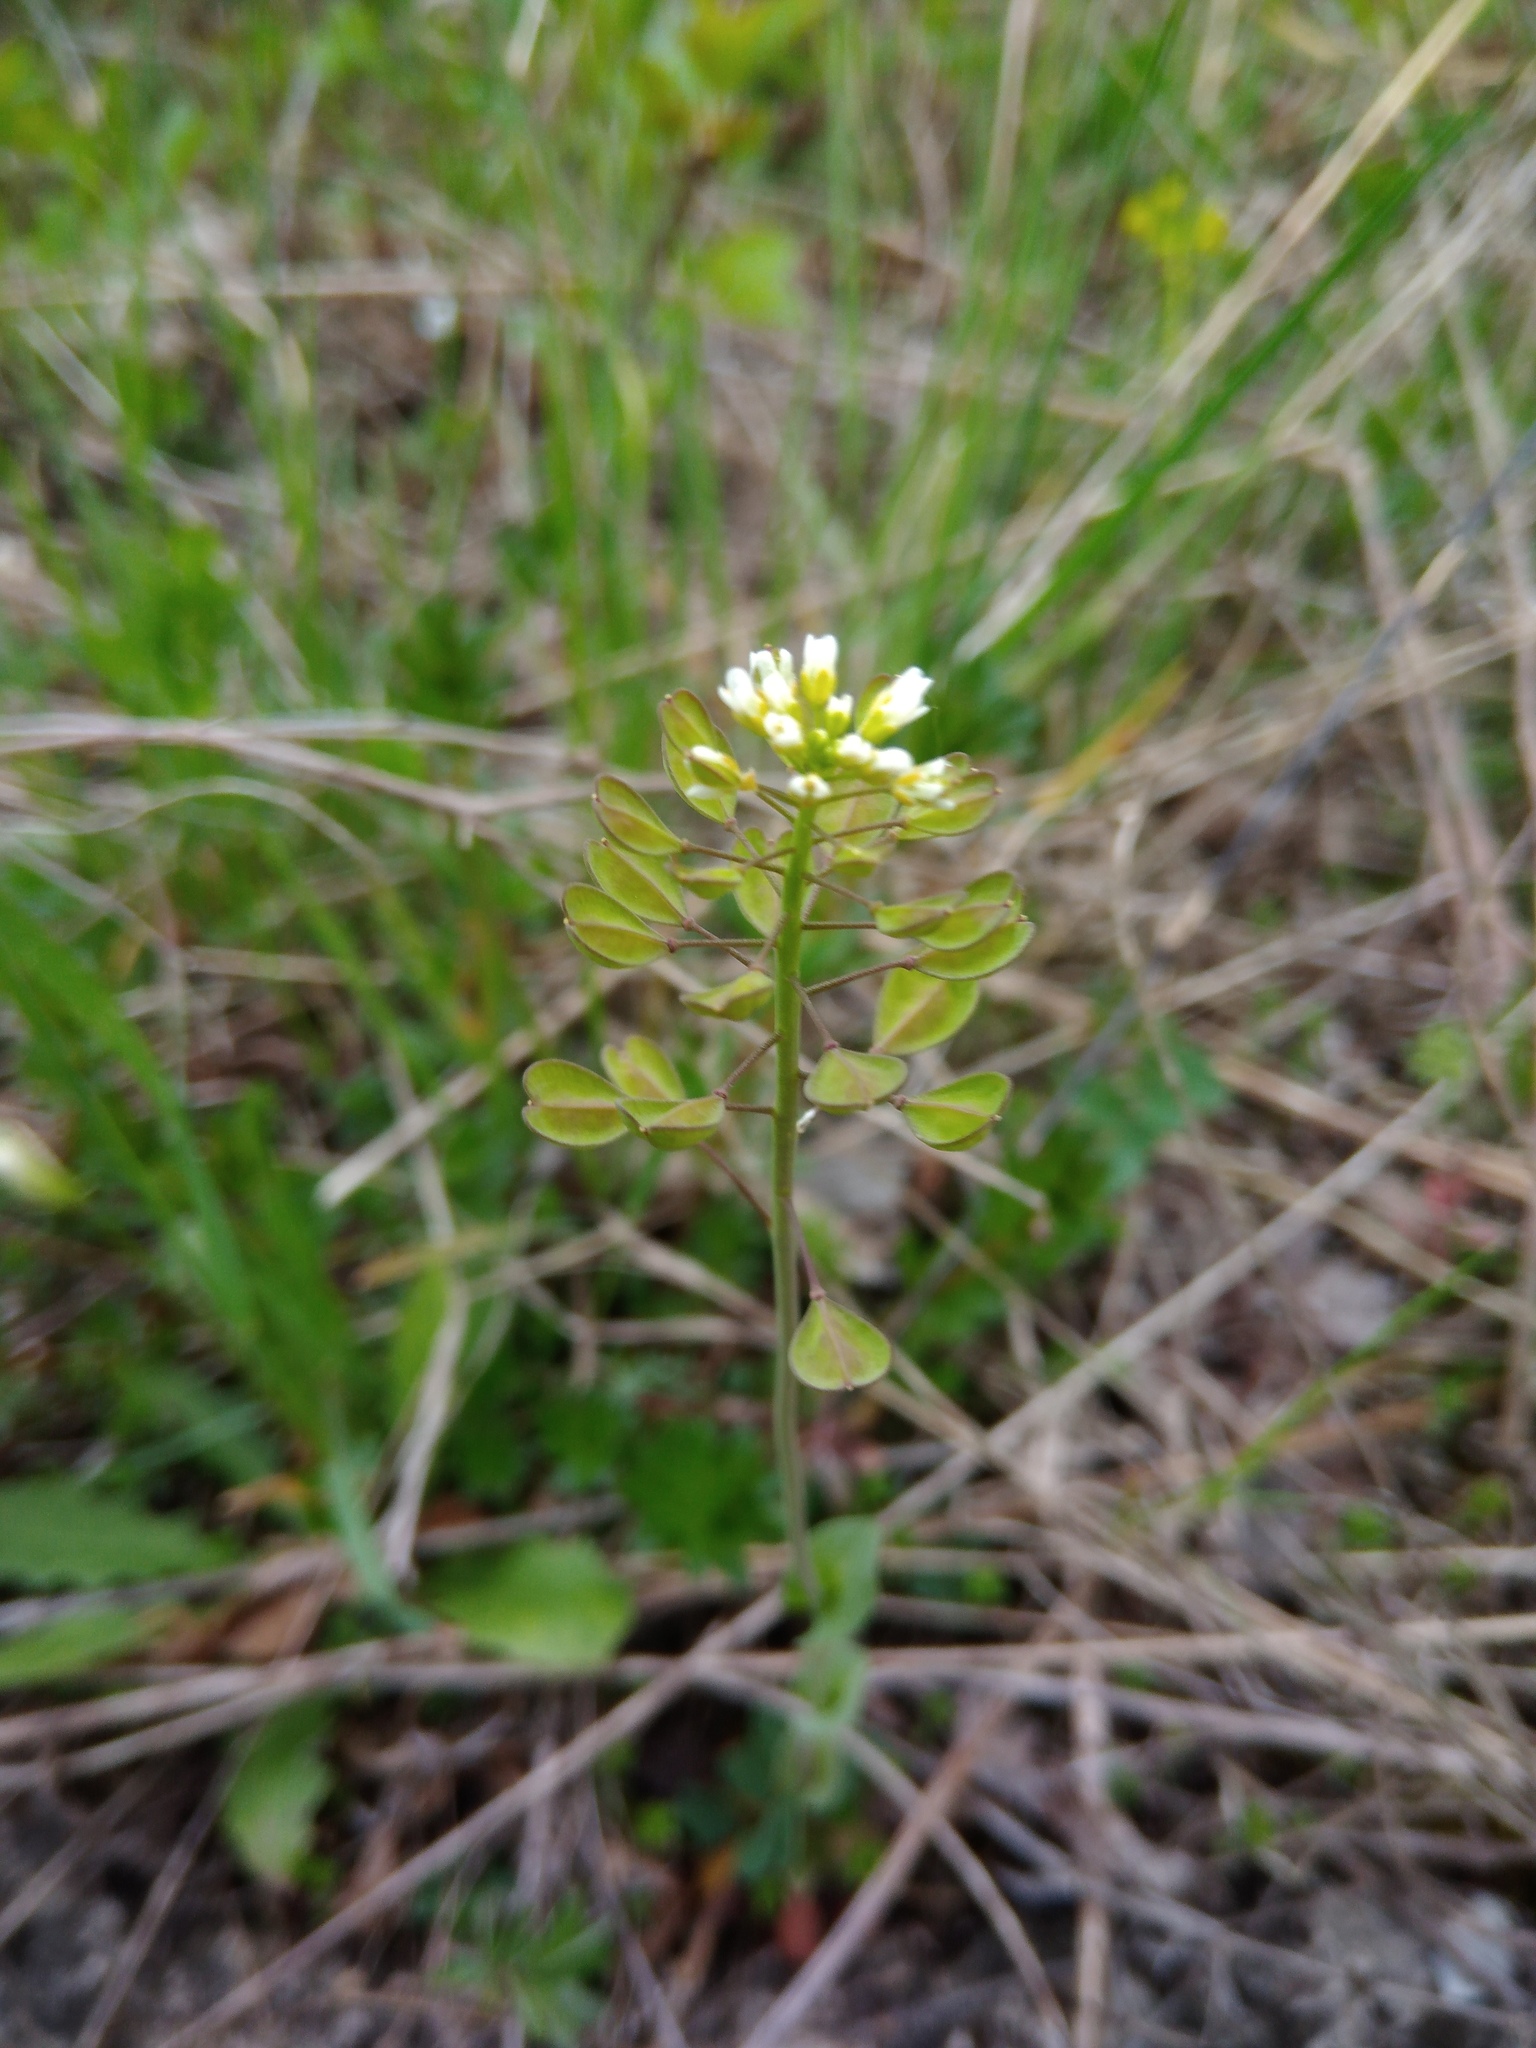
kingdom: Plantae
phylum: Tracheophyta
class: Magnoliopsida
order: Brassicales
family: Brassicaceae
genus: Noccaea
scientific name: Noccaea perfoliata
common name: Perfoliate pennycress
